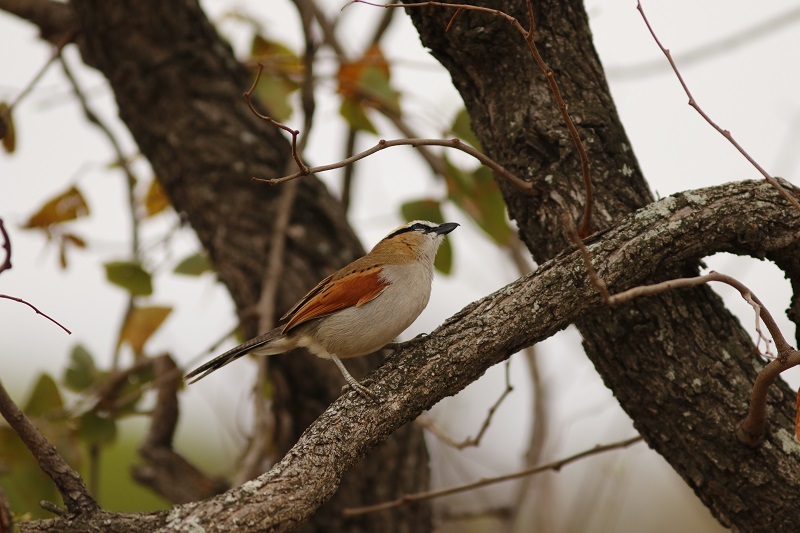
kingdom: Animalia
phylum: Chordata
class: Aves
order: Passeriformes
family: Malaconotidae
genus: Tchagra
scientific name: Tchagra senegalus
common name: Black-crowned tchagra
